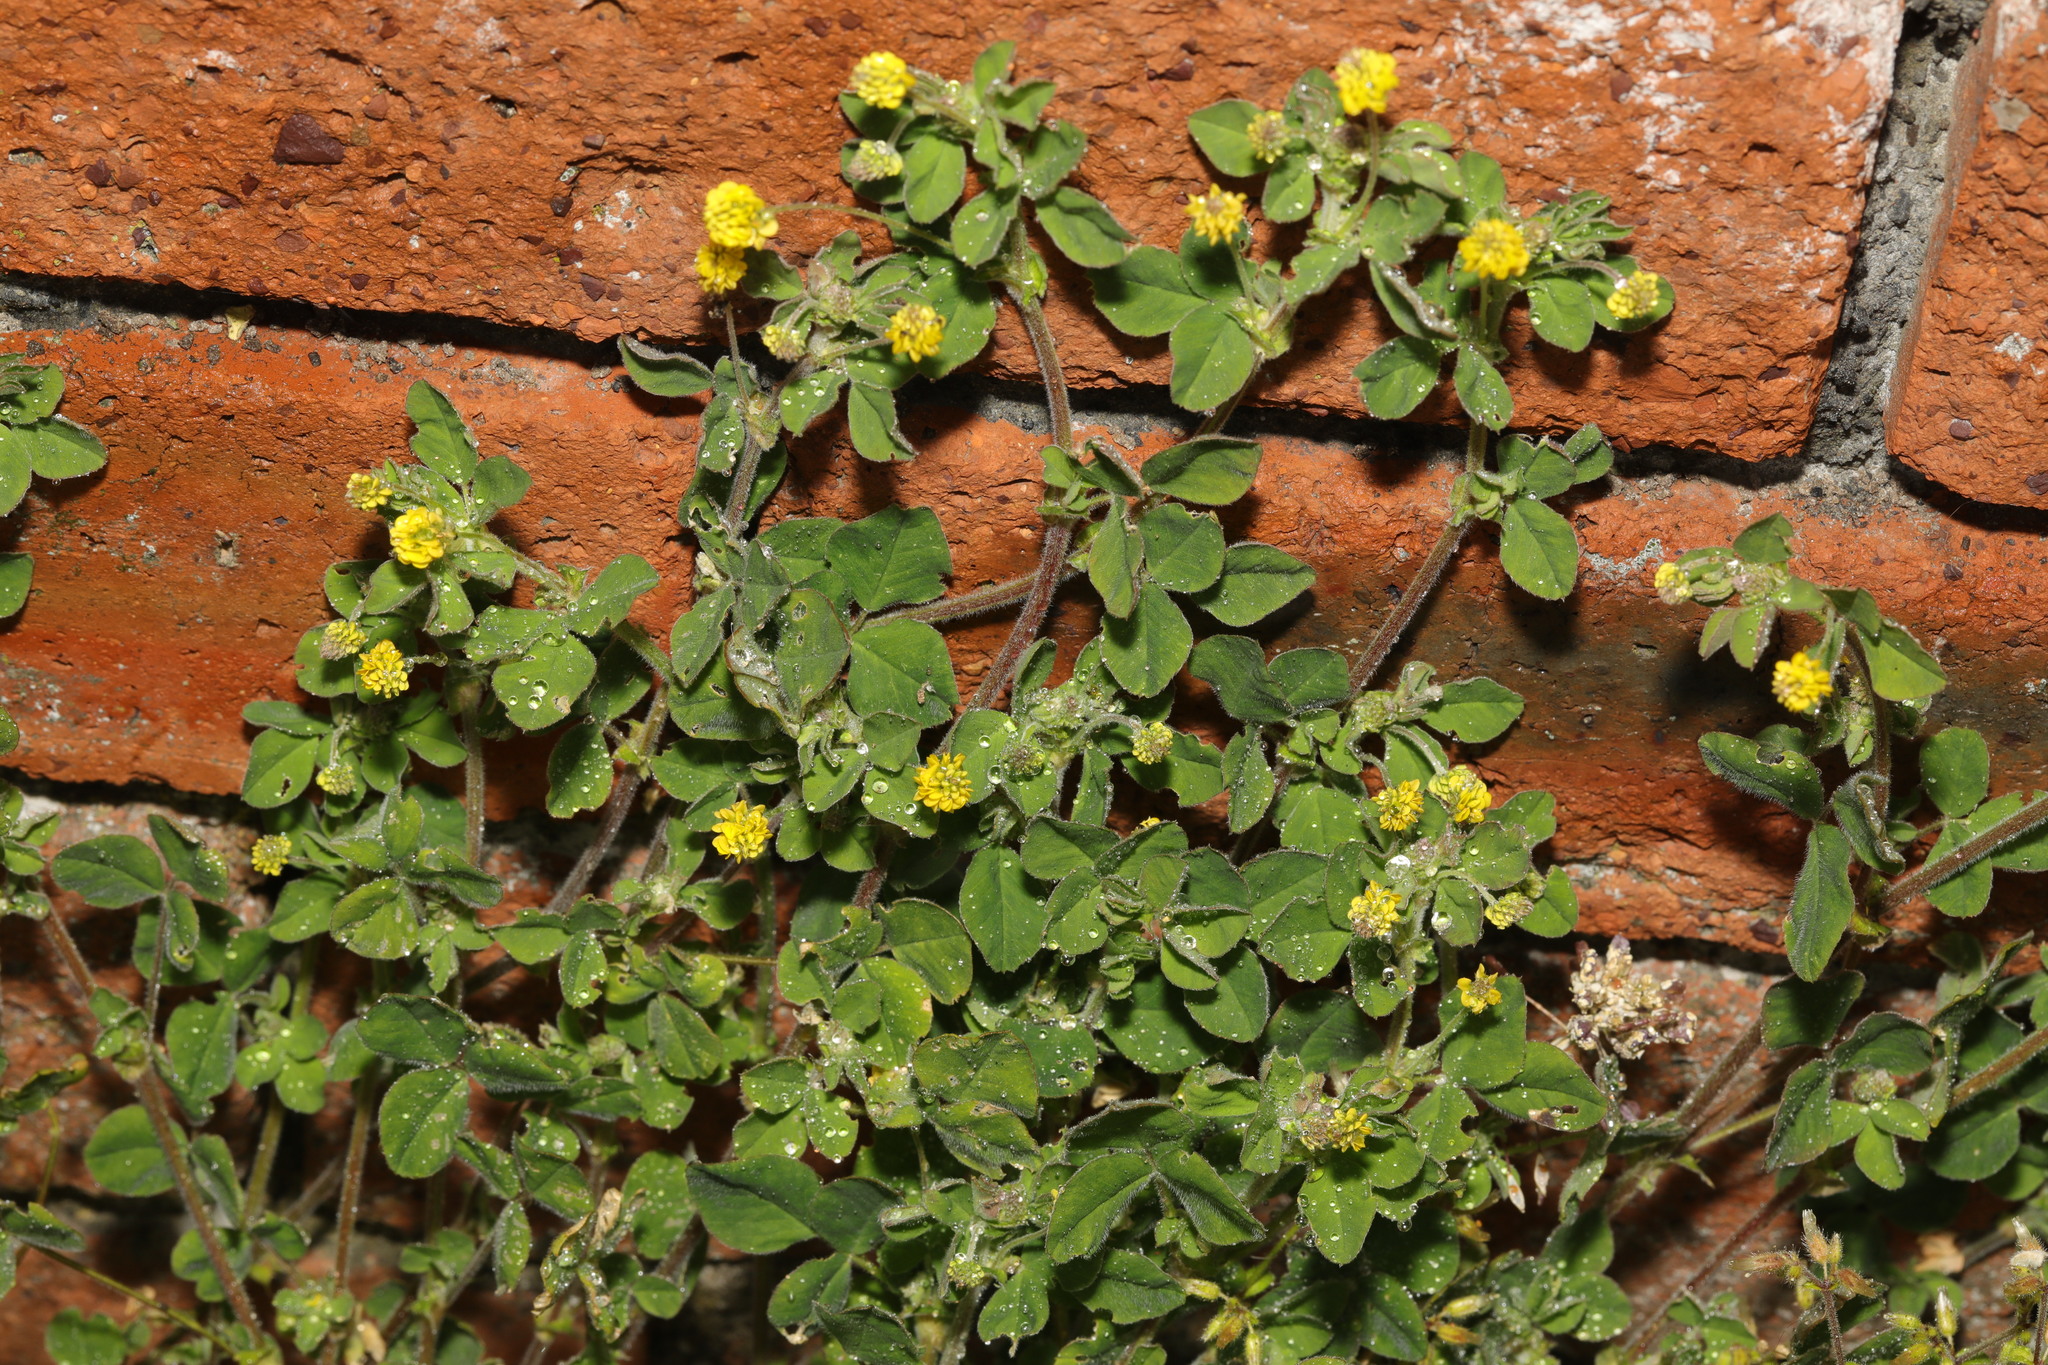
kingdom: Plantae
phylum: Tracheophyta
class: Magnoliopsida
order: Fabales
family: Fabaceae
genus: Medicago
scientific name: Medicago lupulina
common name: Black medick
